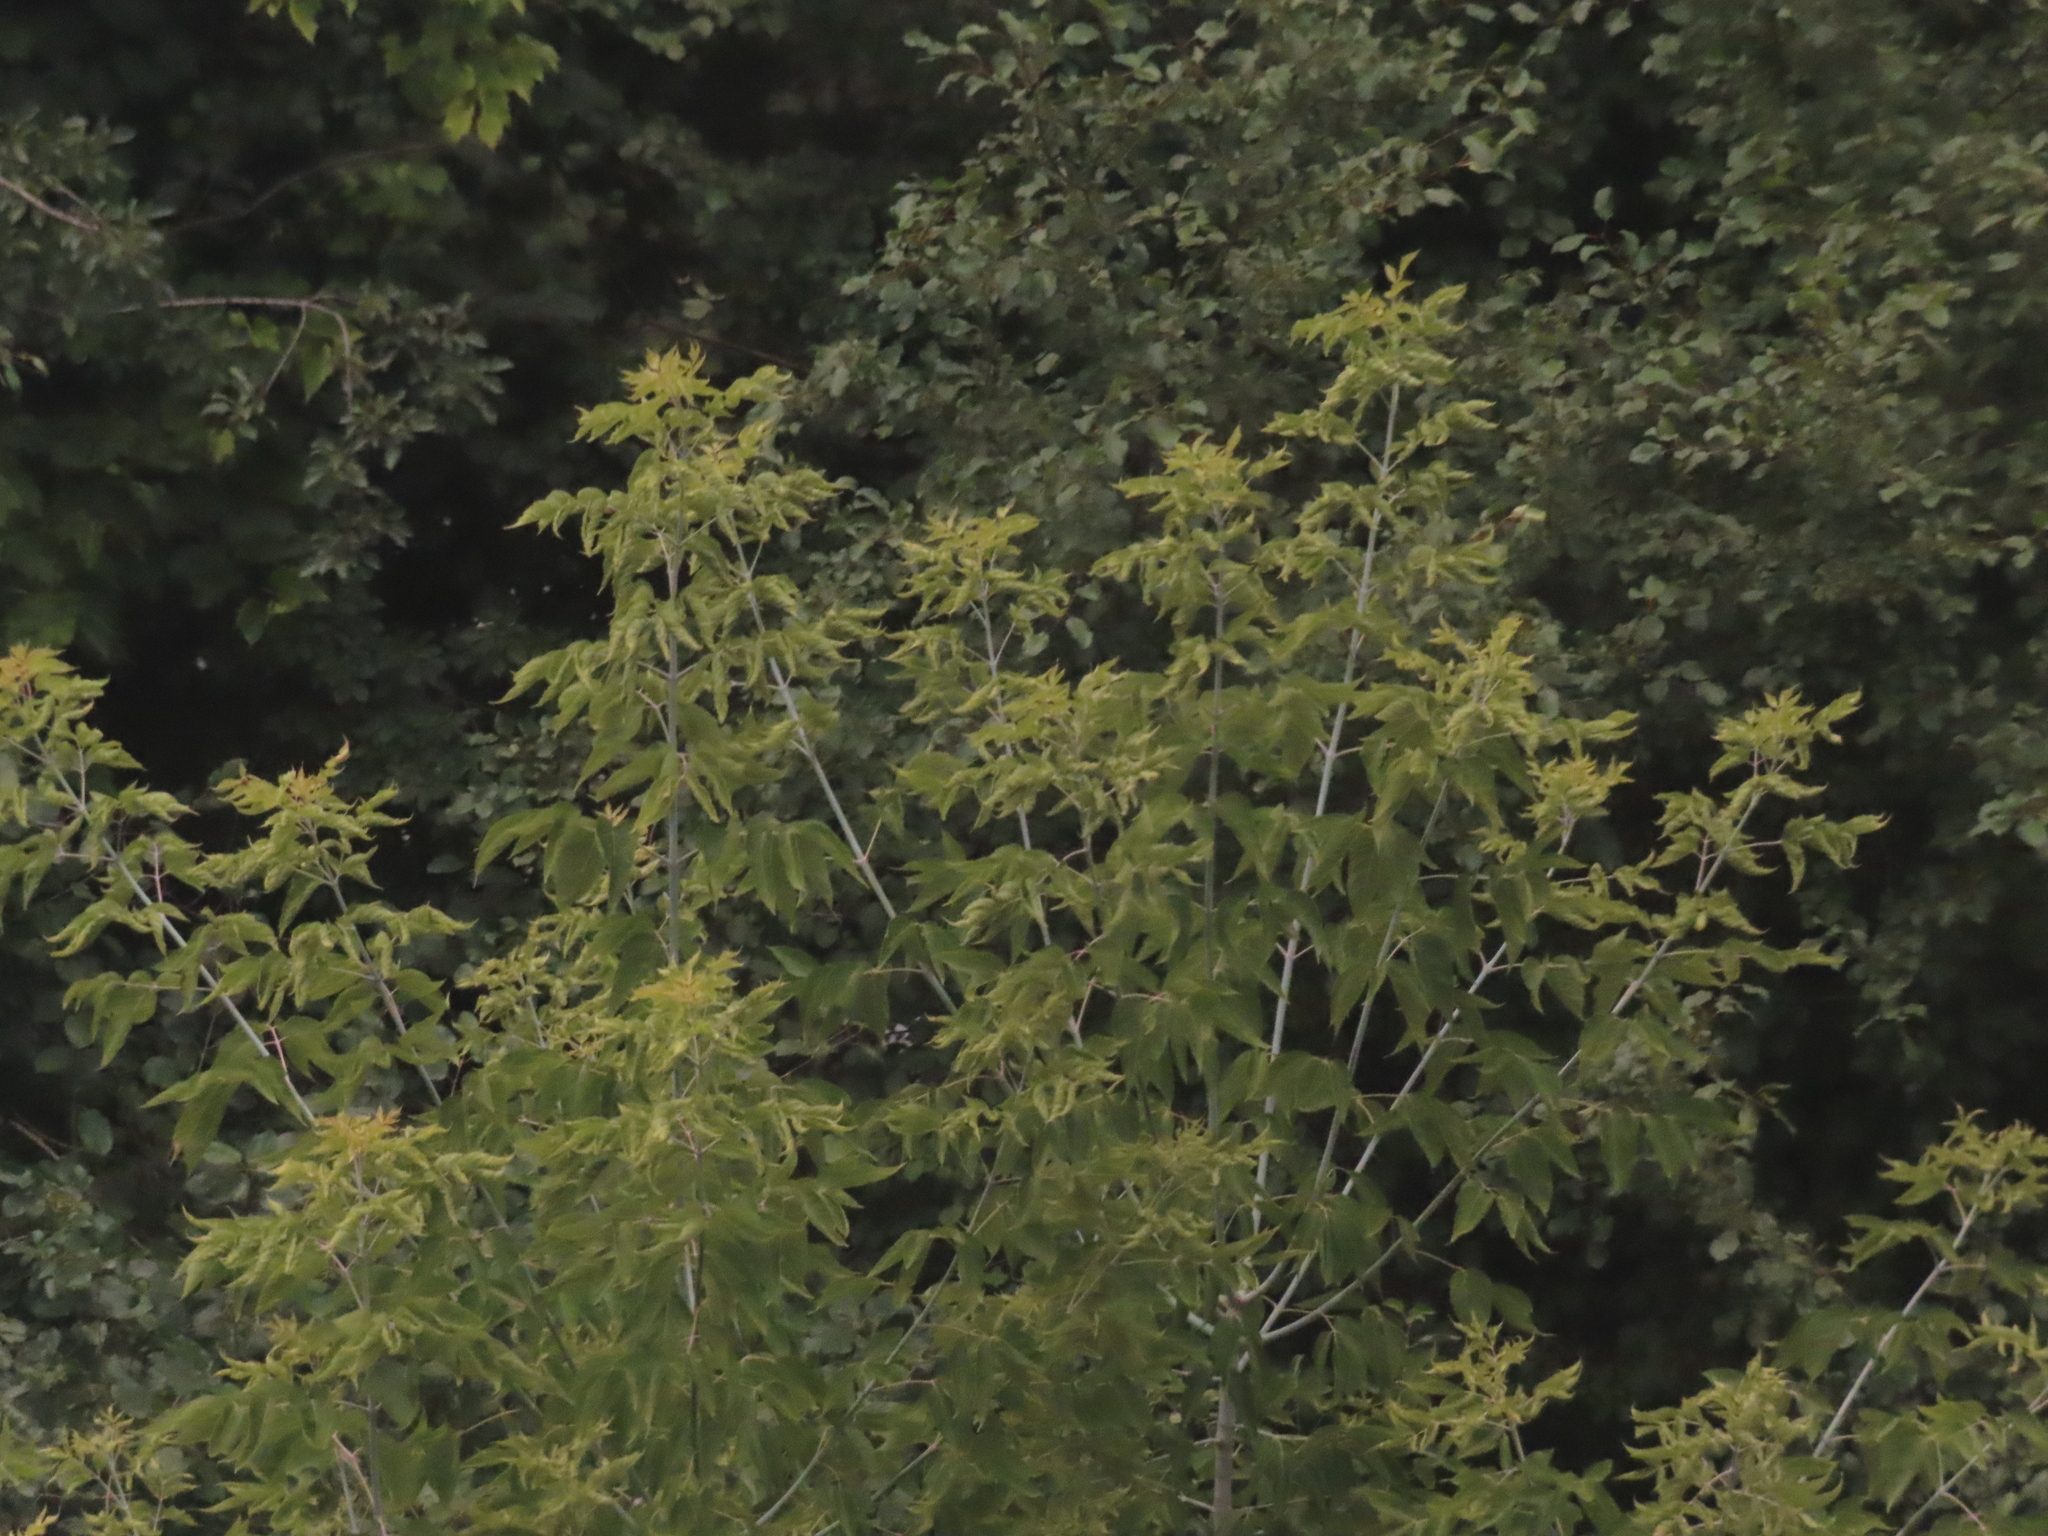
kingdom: Plantae
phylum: Tracheophyta
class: Magnoliopsida
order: Sapindales
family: Sapindaceae
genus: Acer
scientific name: Acer negundo
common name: Ashleaf maple
